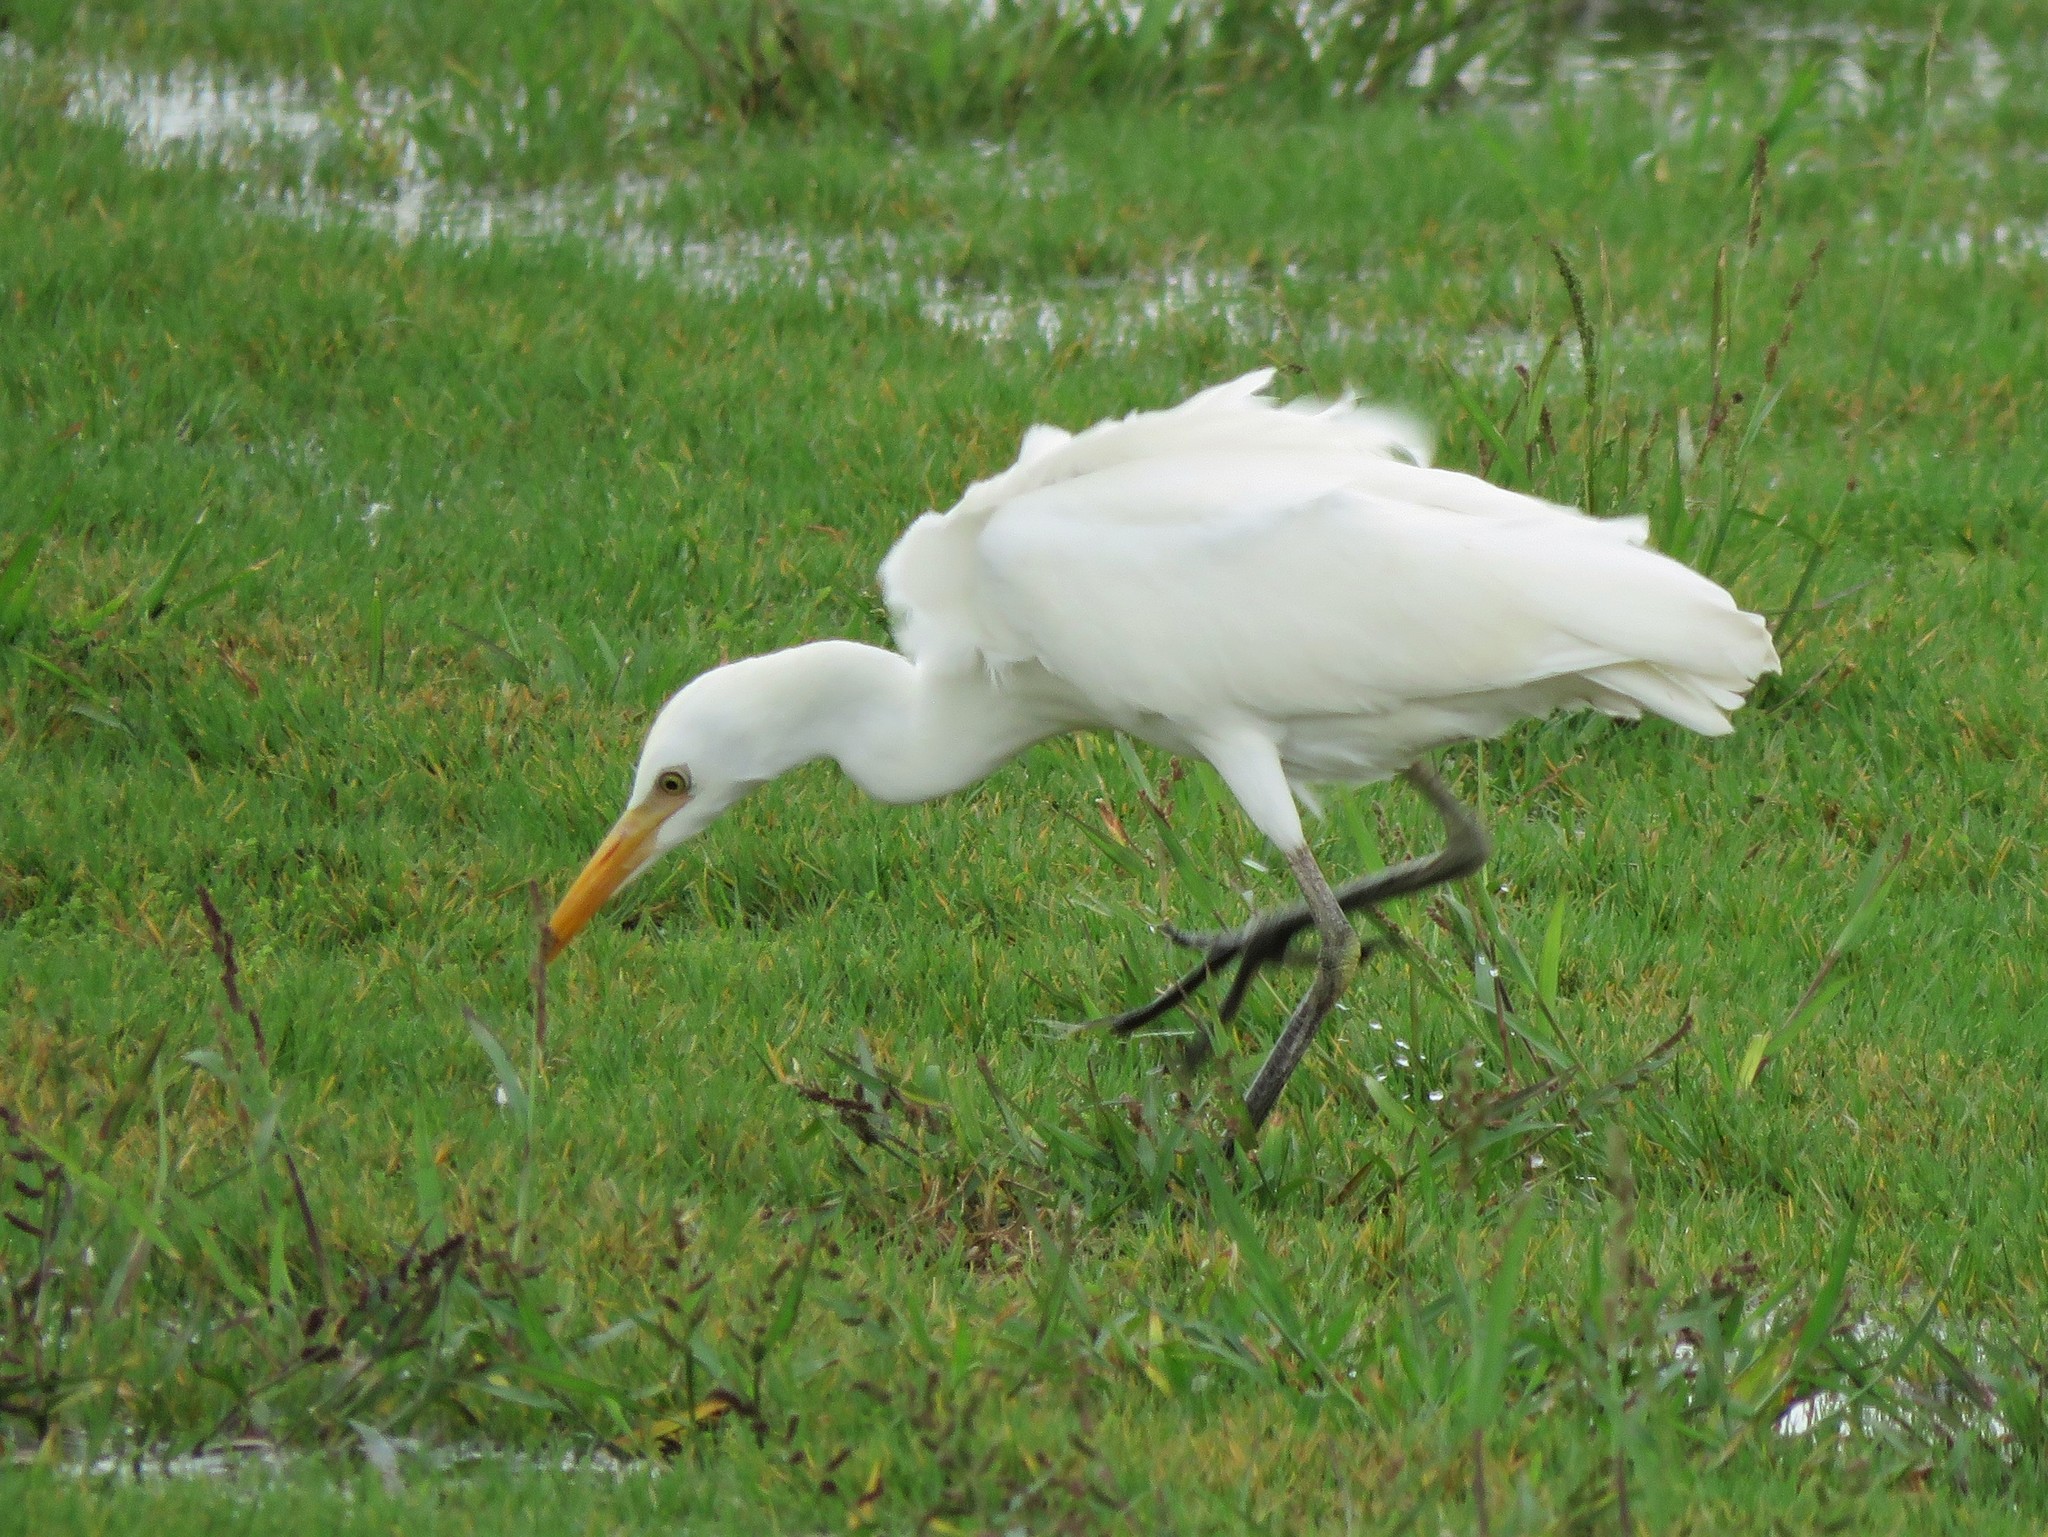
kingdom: Animalia
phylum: Chordata
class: Aves
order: Pelecaniformes
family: Ardeidae
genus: Bubulcus
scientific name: Bubulcus ibis
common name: Cattle egret
